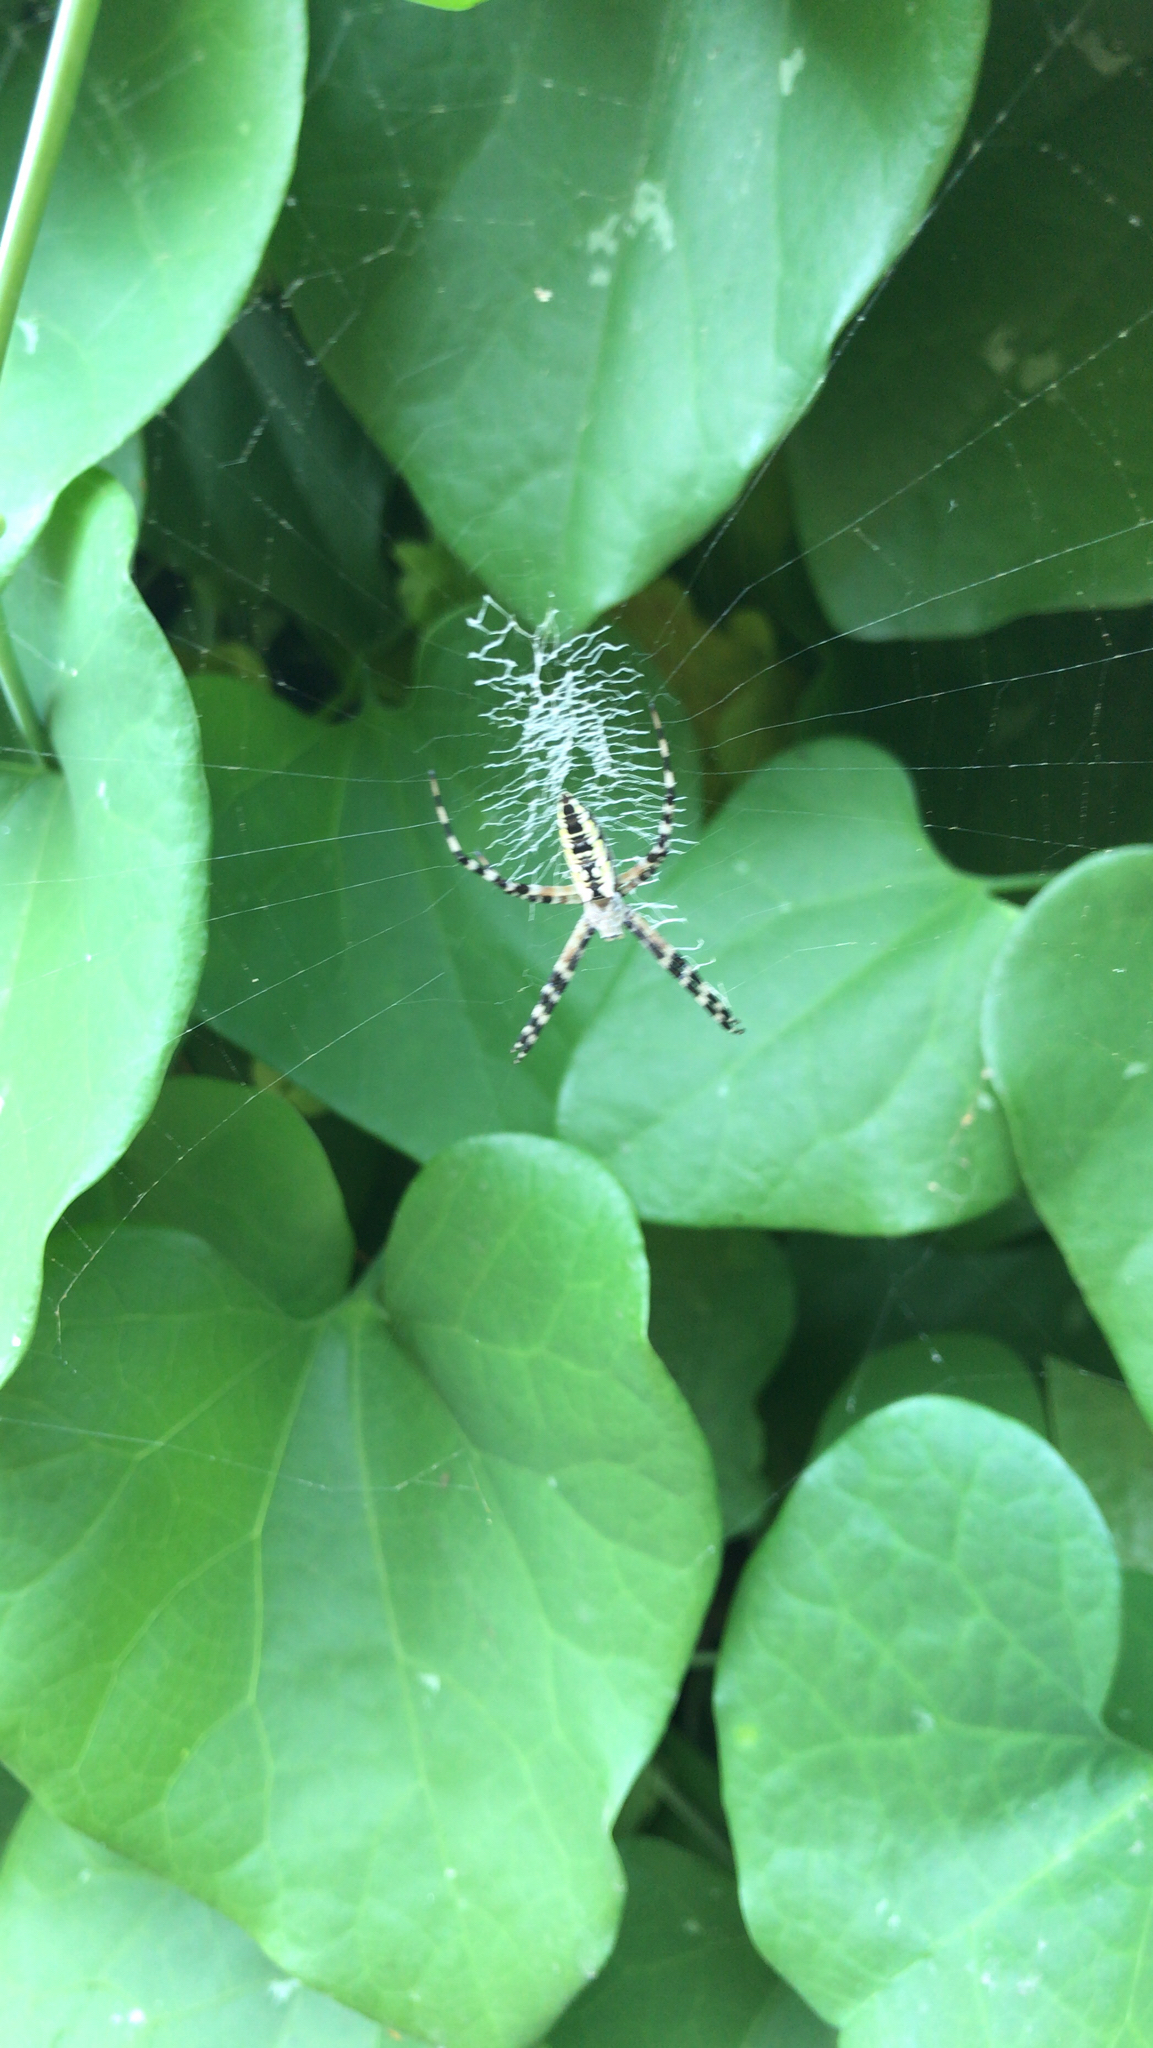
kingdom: Animalia
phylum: Arthropoda
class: Arachnida
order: Araneae
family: Araneidae
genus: Argiope
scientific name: Argiope aurantia
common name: Orb weavers
